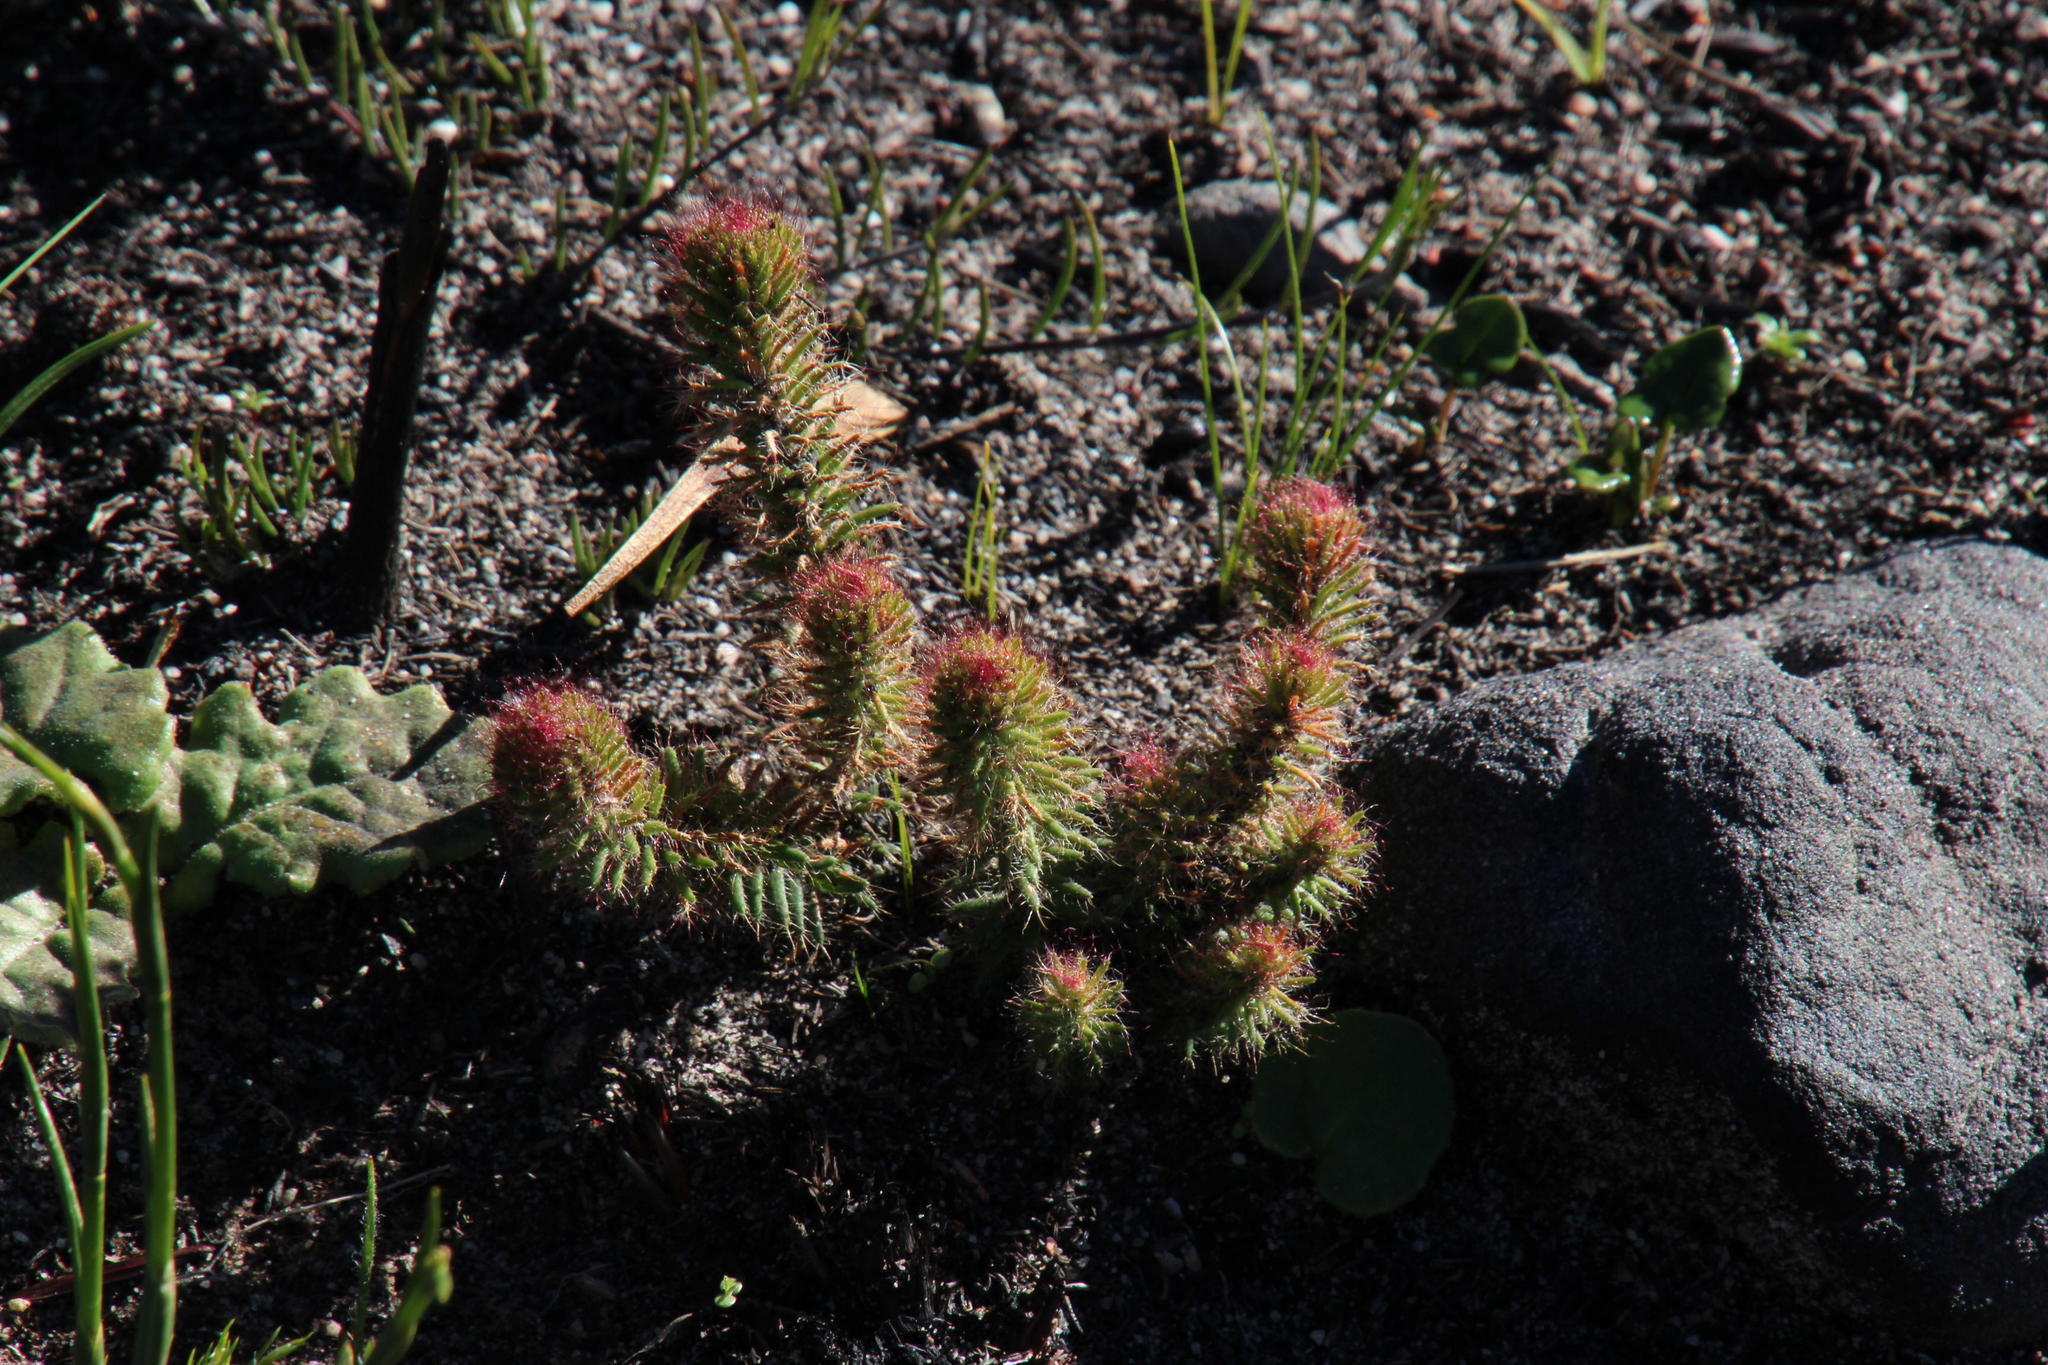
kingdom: Plantae
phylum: Tracheophyta
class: Magnoliopsida
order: Ericales
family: Ericaceae
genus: Erica
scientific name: Erica cerinthoides
